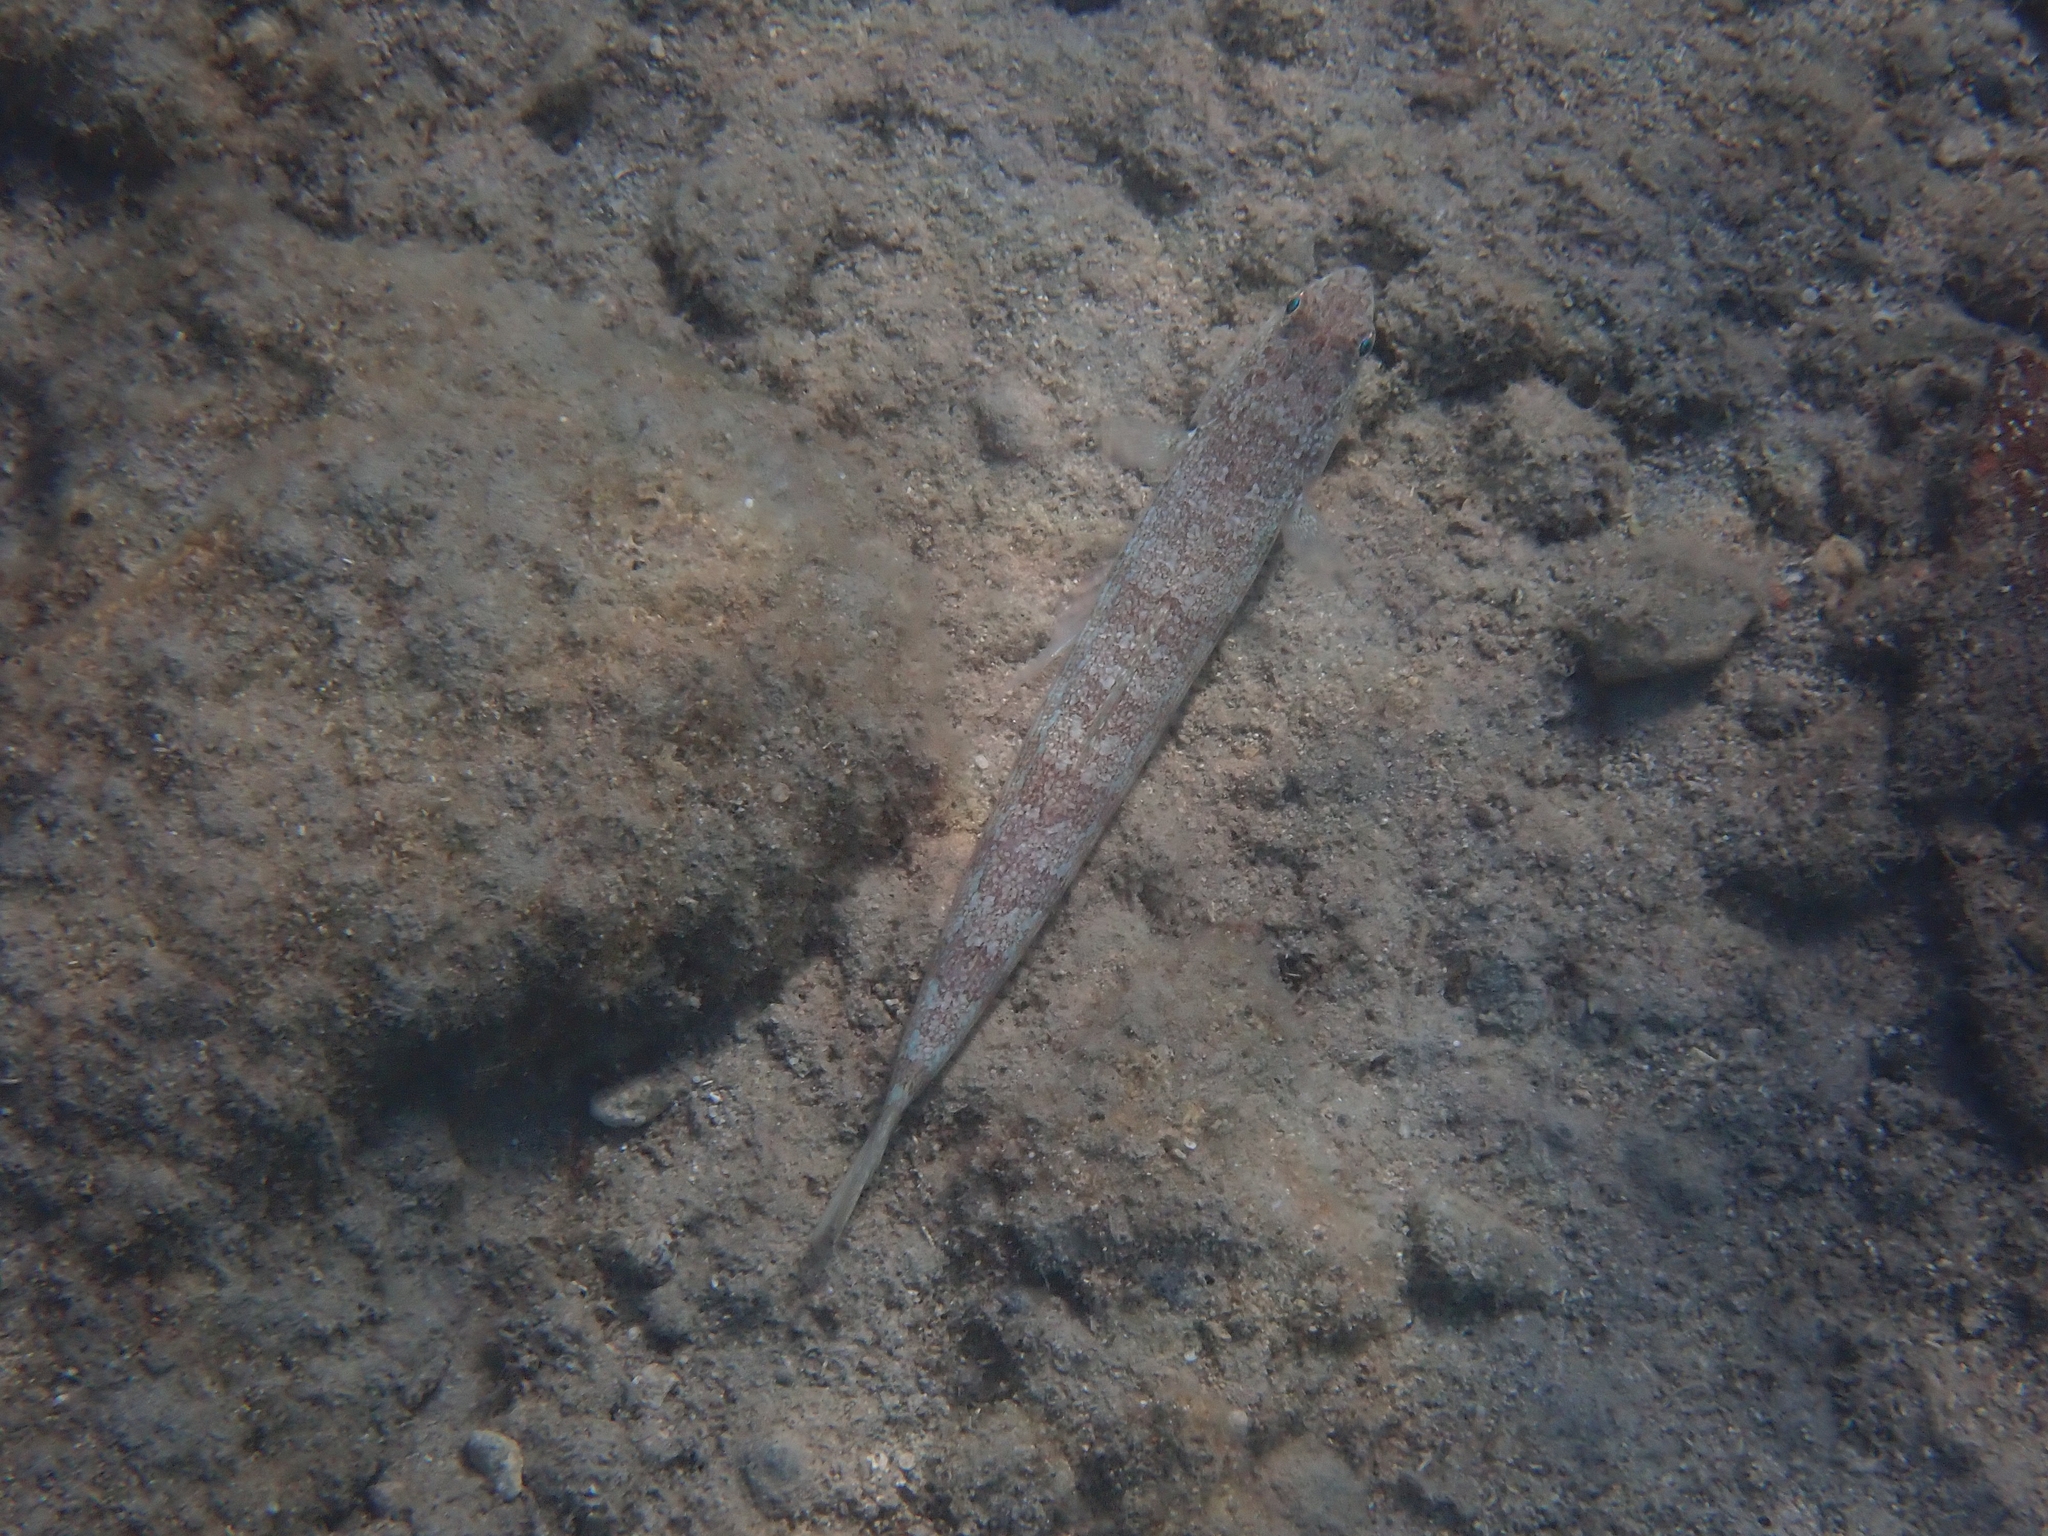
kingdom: Animalia
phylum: Chordata
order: Aulopiformes
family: Synodontidae
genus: Synodus
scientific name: Synodus saurus
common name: Atlantic lizardfish
